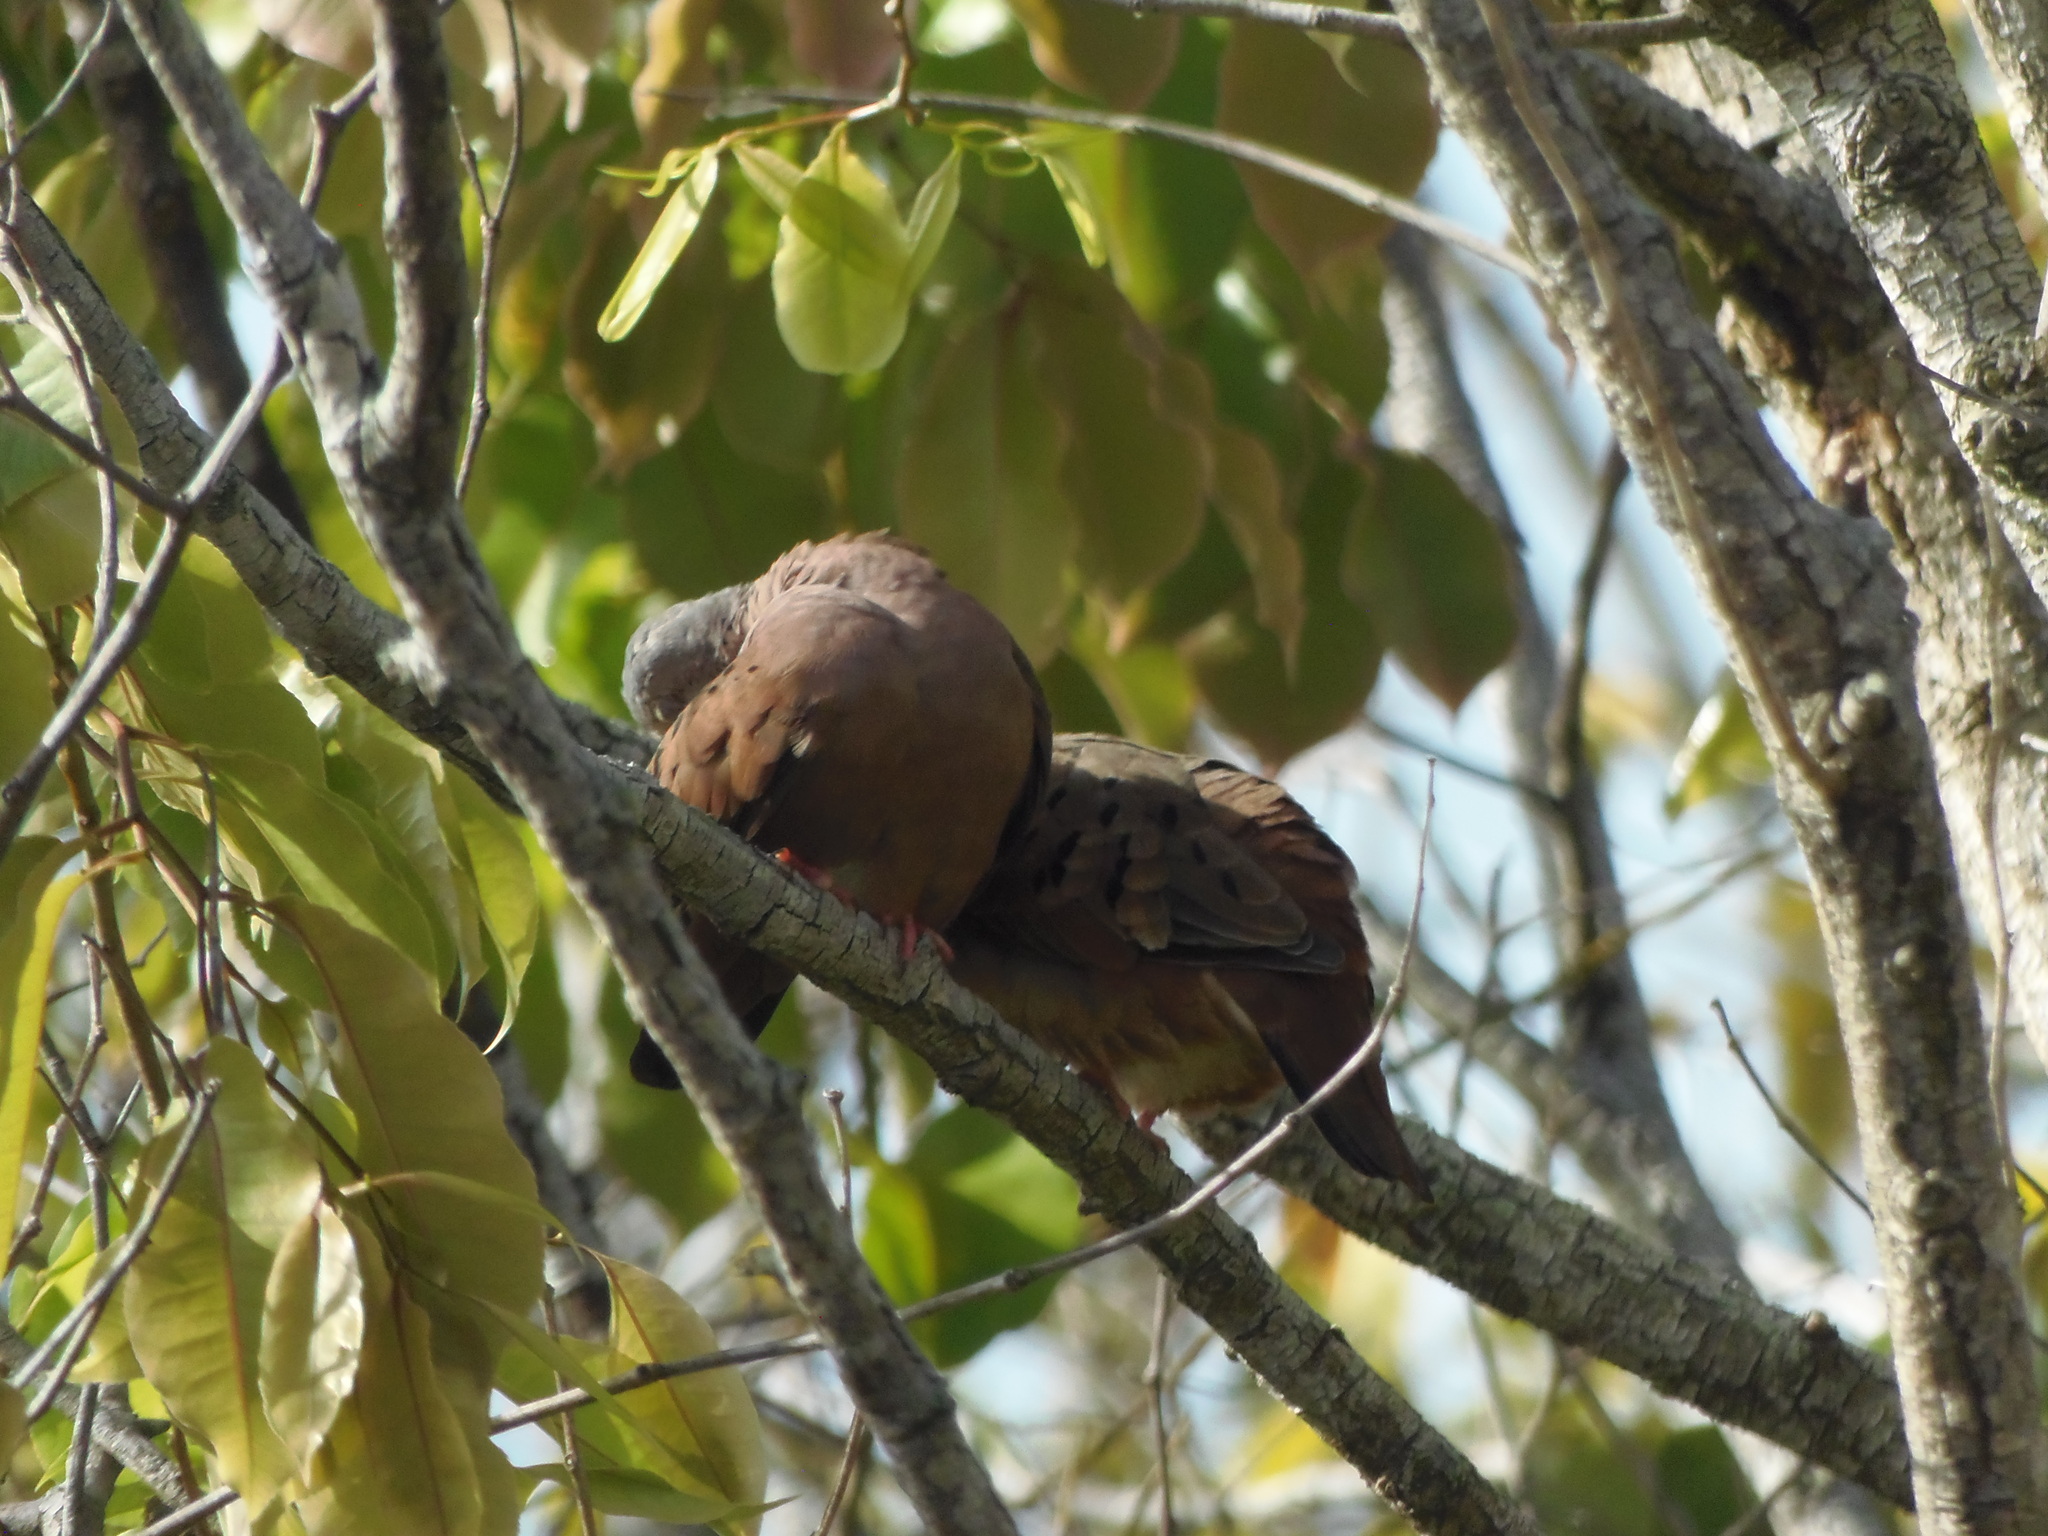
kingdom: Animalia
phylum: Chordata
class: Aves
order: Columbiformes
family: Columbidae
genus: Columbina
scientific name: Columbina talpacoti
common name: Ruddy ground dove
